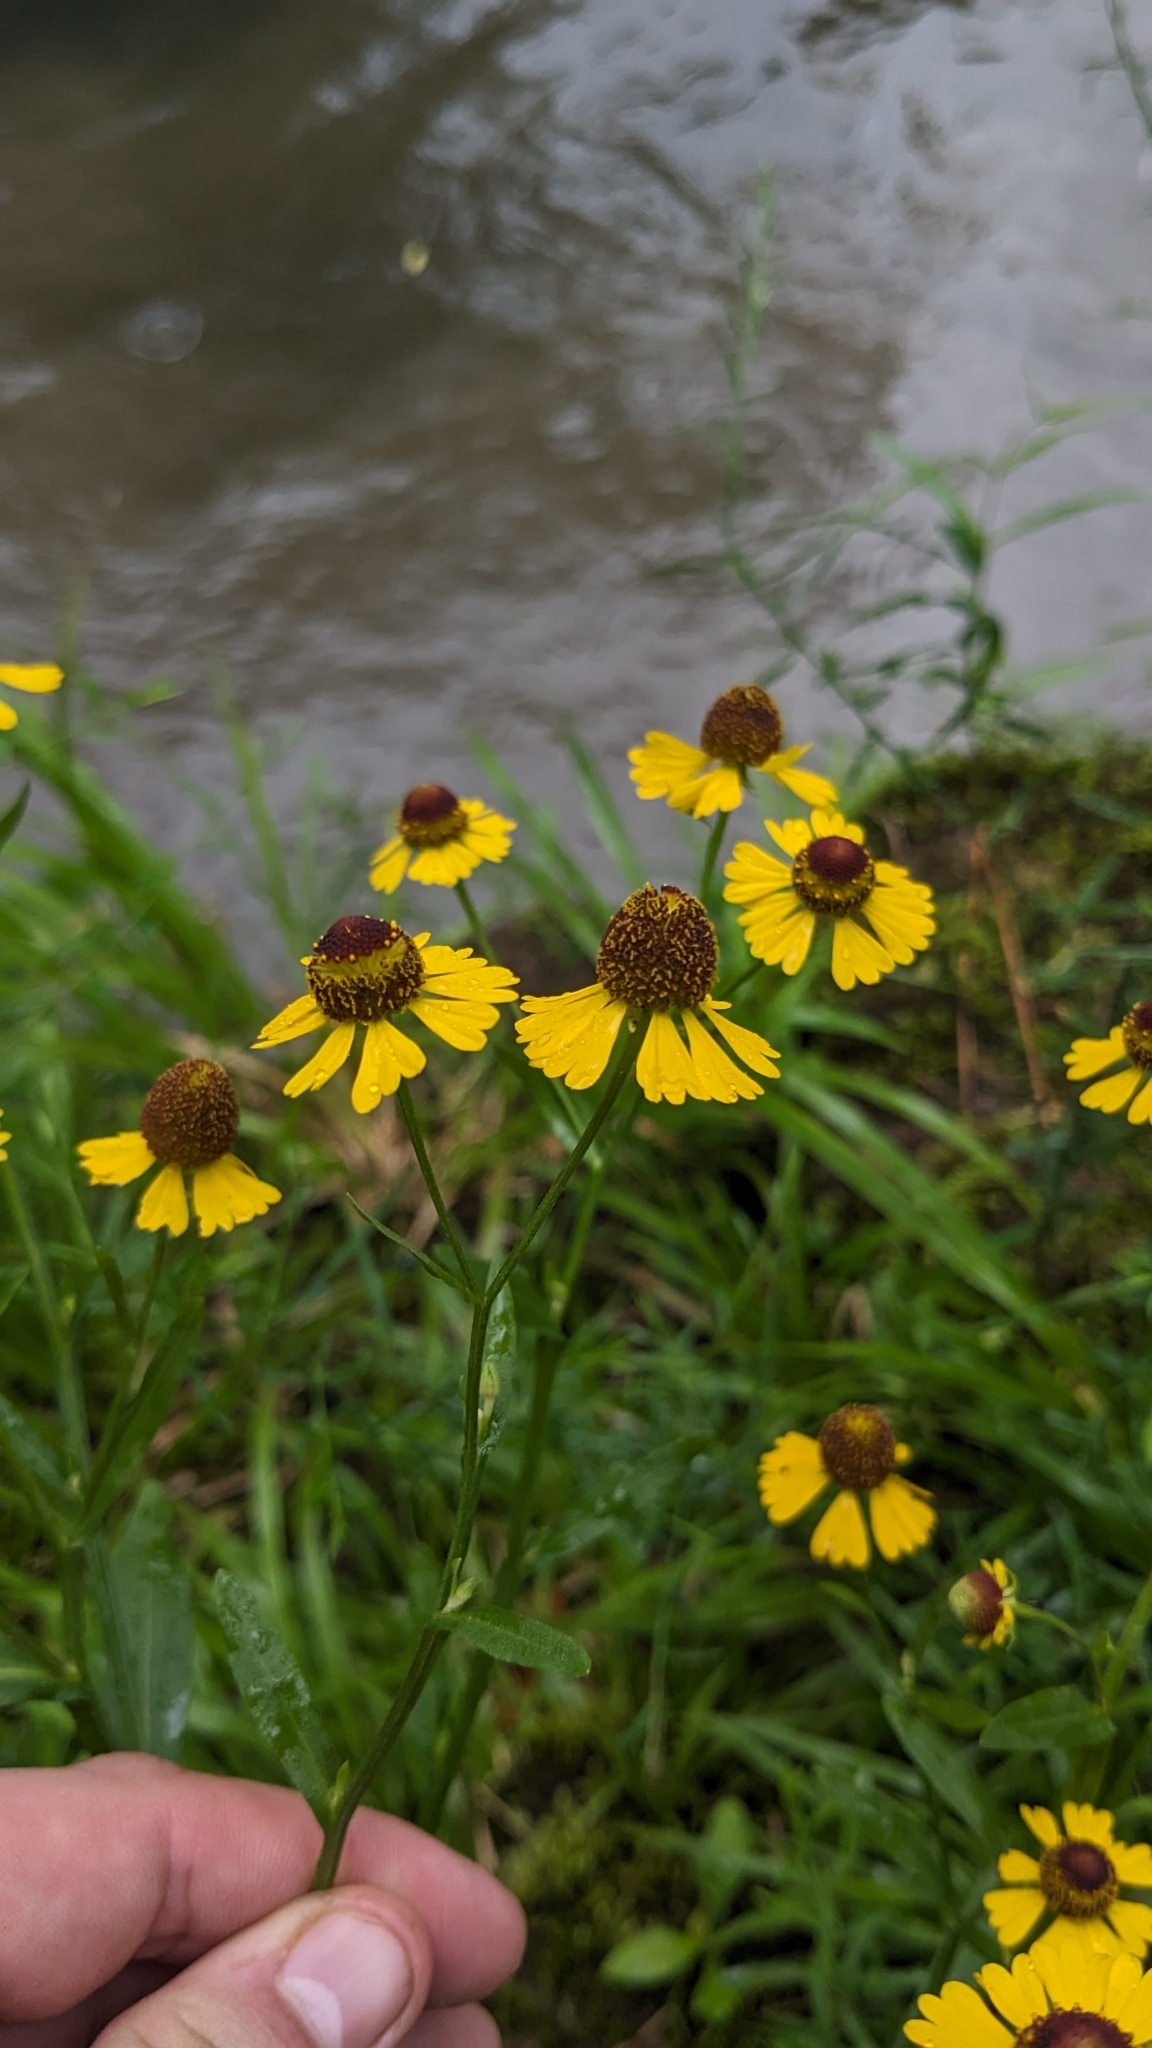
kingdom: Plantae
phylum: Tracheophyta
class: Magnoliopsida
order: Asterales
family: Asteraceae
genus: Helenium
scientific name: Helenium flexuosum
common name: Naked-flowered sneezeweed
